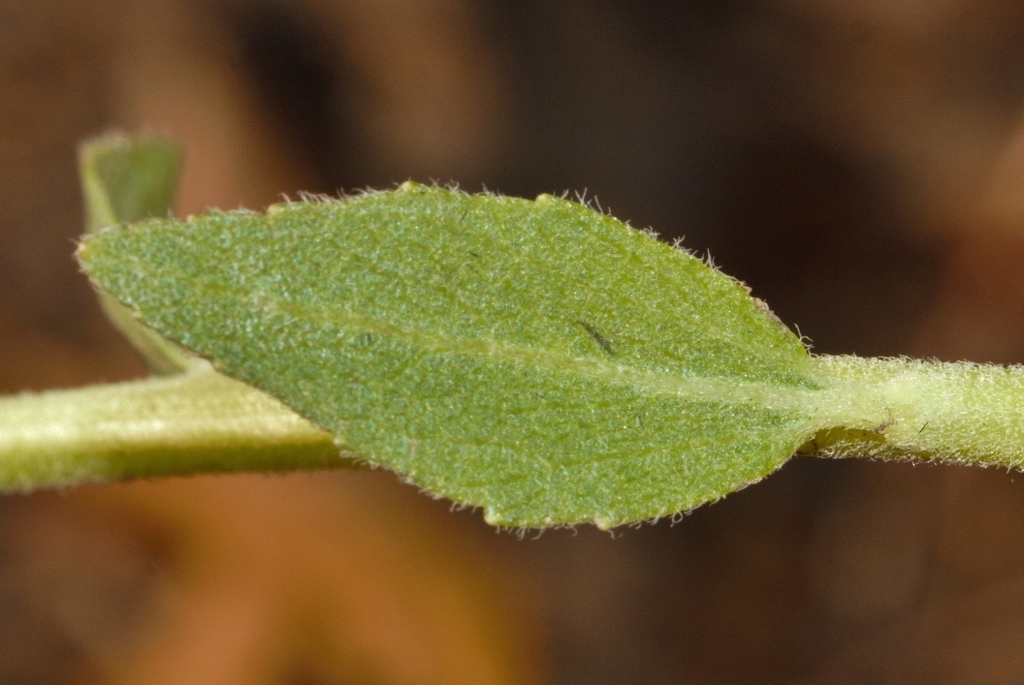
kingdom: Plantae
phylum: Tracheophyta
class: Magnoliopsida
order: Asterales
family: Asteraceae
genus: Stomatanthes
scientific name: Stomatanthes africanus
